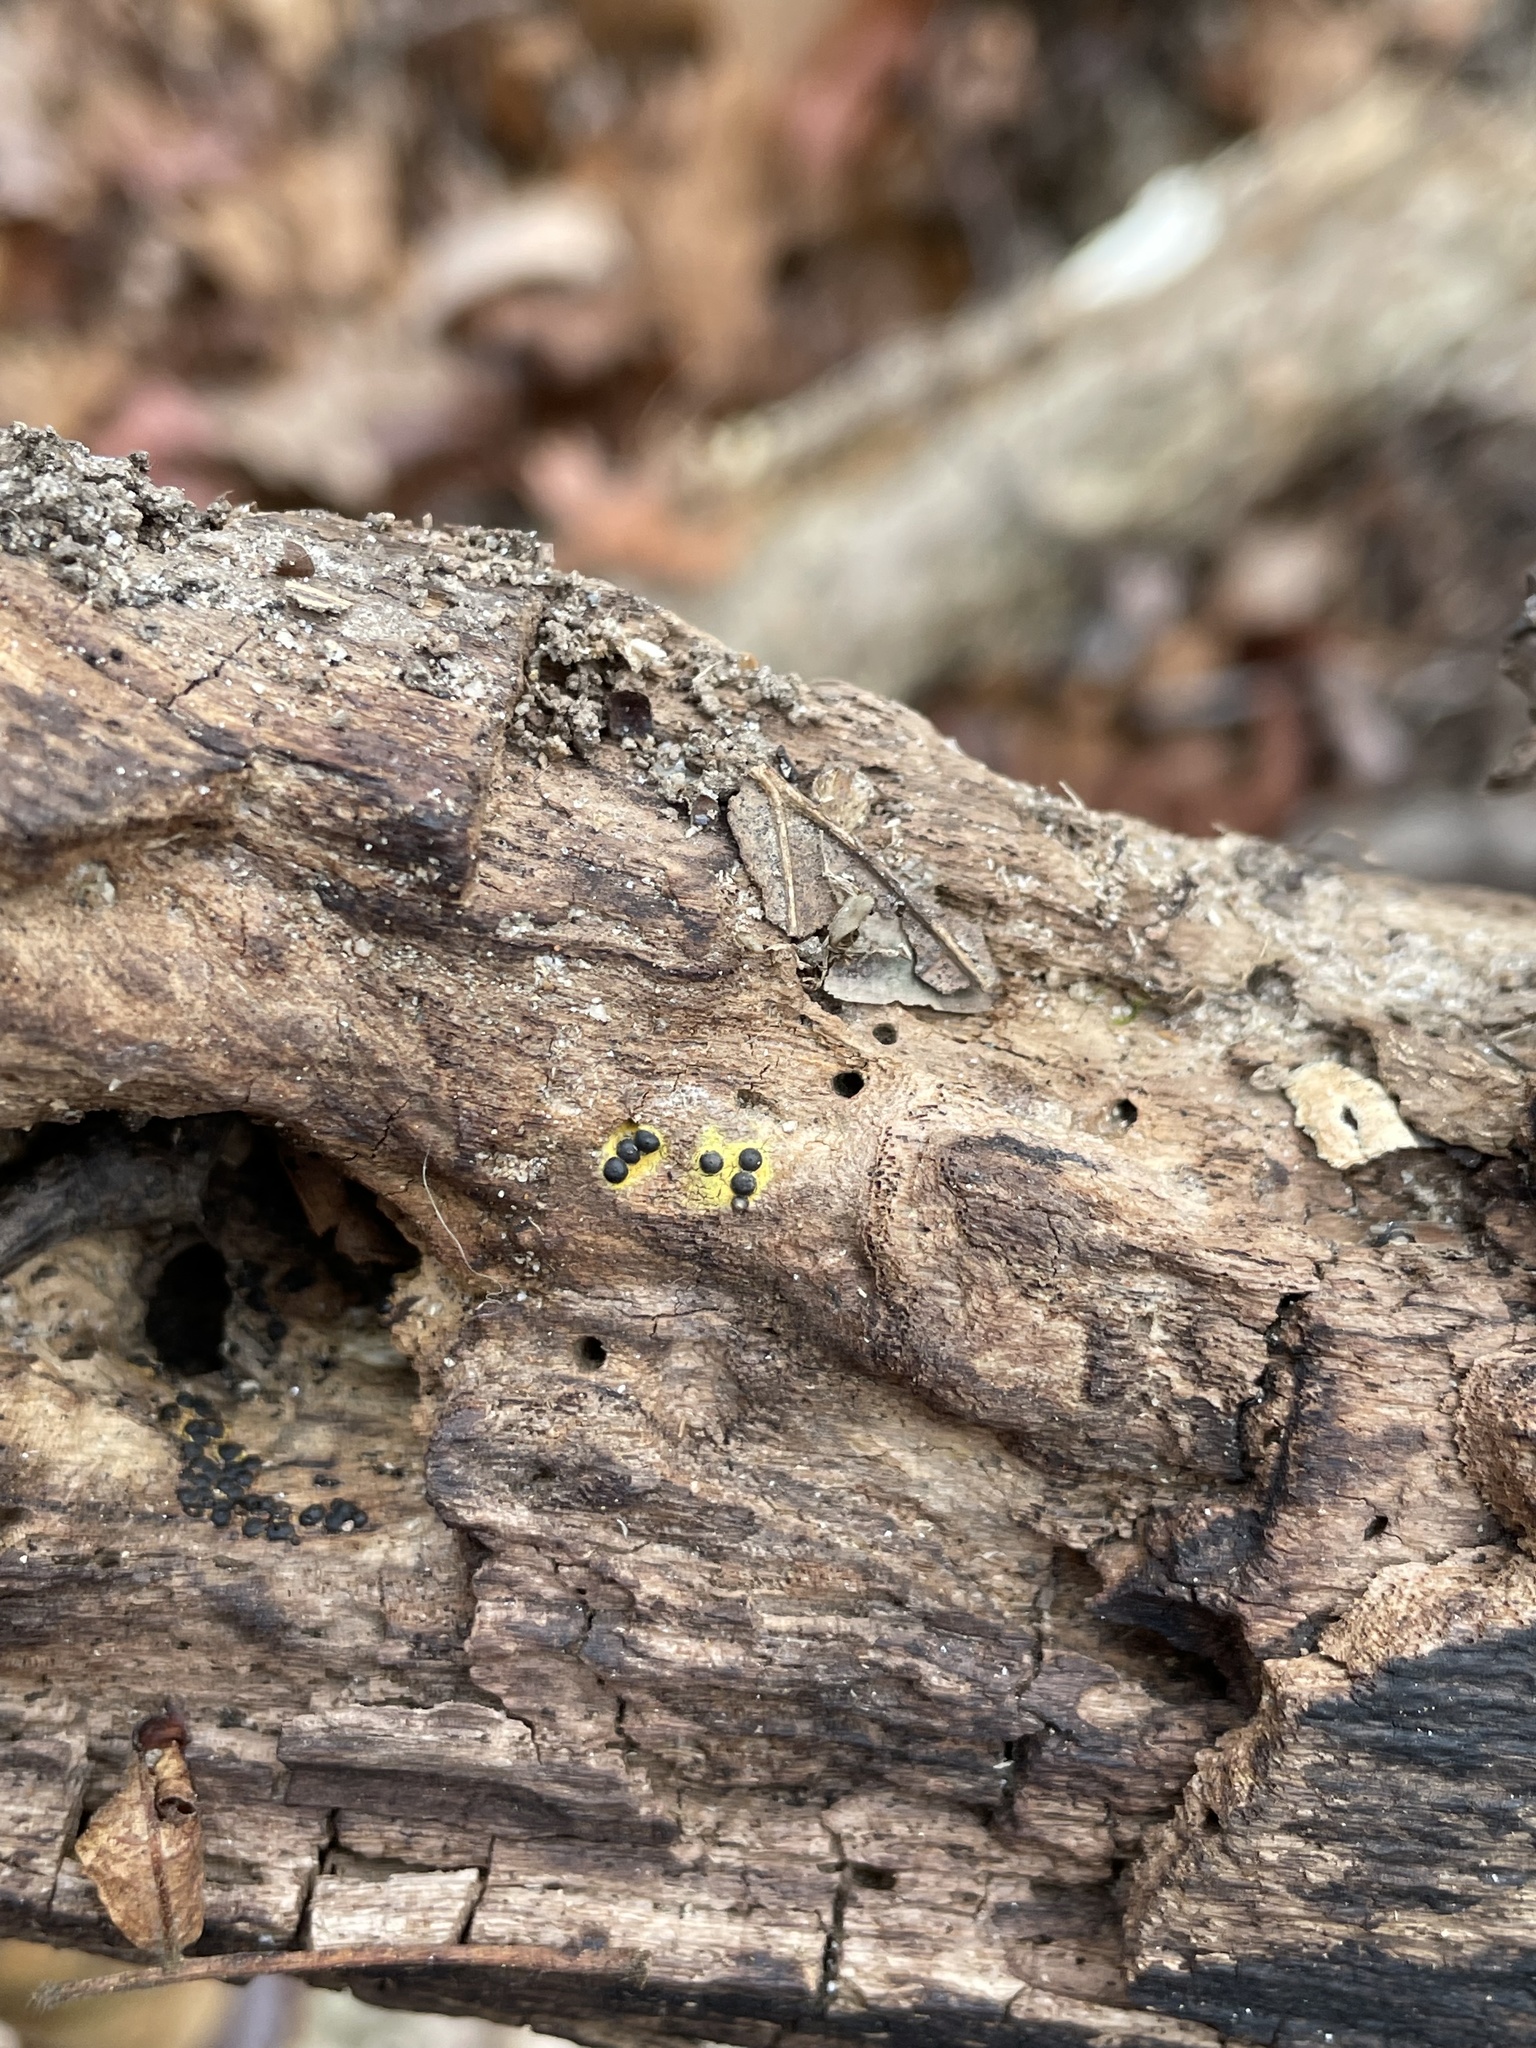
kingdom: Fungi
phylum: Ascomycota
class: Sordariomycetes
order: Xylariales
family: Xylariaceae
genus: Rosellinia
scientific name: Rosellinia subiculata
